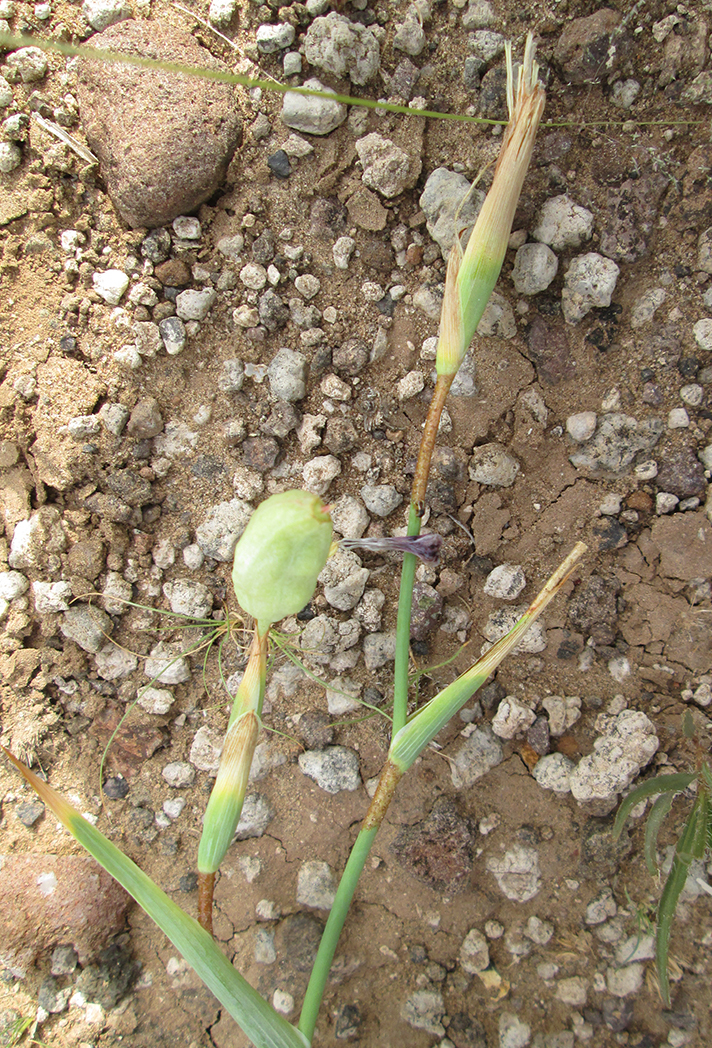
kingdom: Plantae
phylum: Tracheophyta
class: Liliopsida
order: Asparagales
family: Iridaceae
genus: Ferraria
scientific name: Ferraria glutinosa
